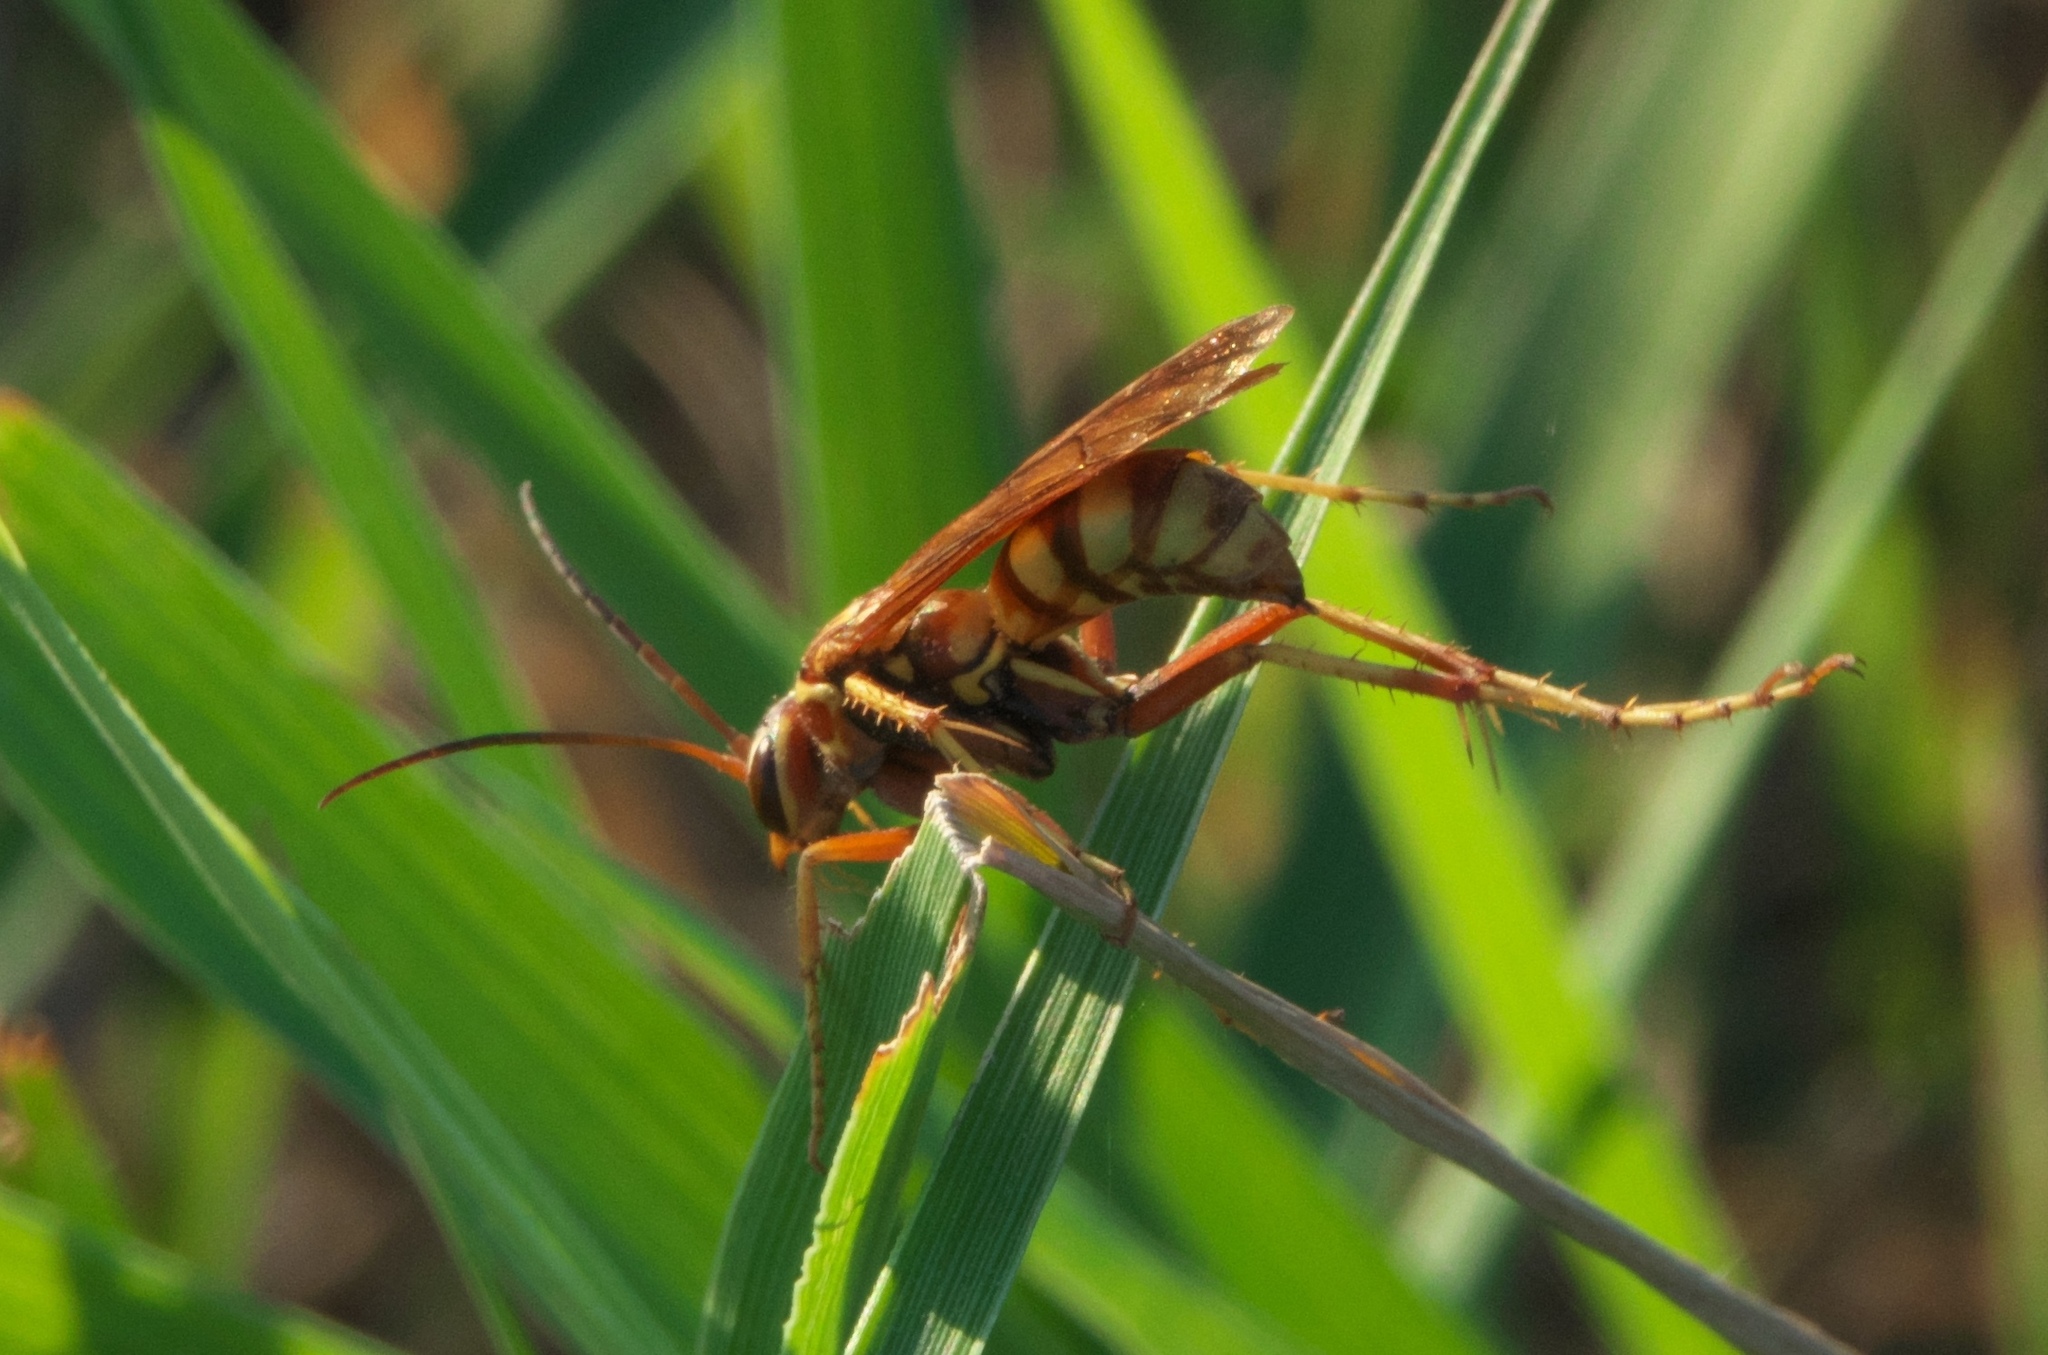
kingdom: Animalia
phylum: Arthropoda
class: Insecta
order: Hymenoptera
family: Pompilidae
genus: Poecilopompilus
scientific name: Poecilopompilus interruptus
